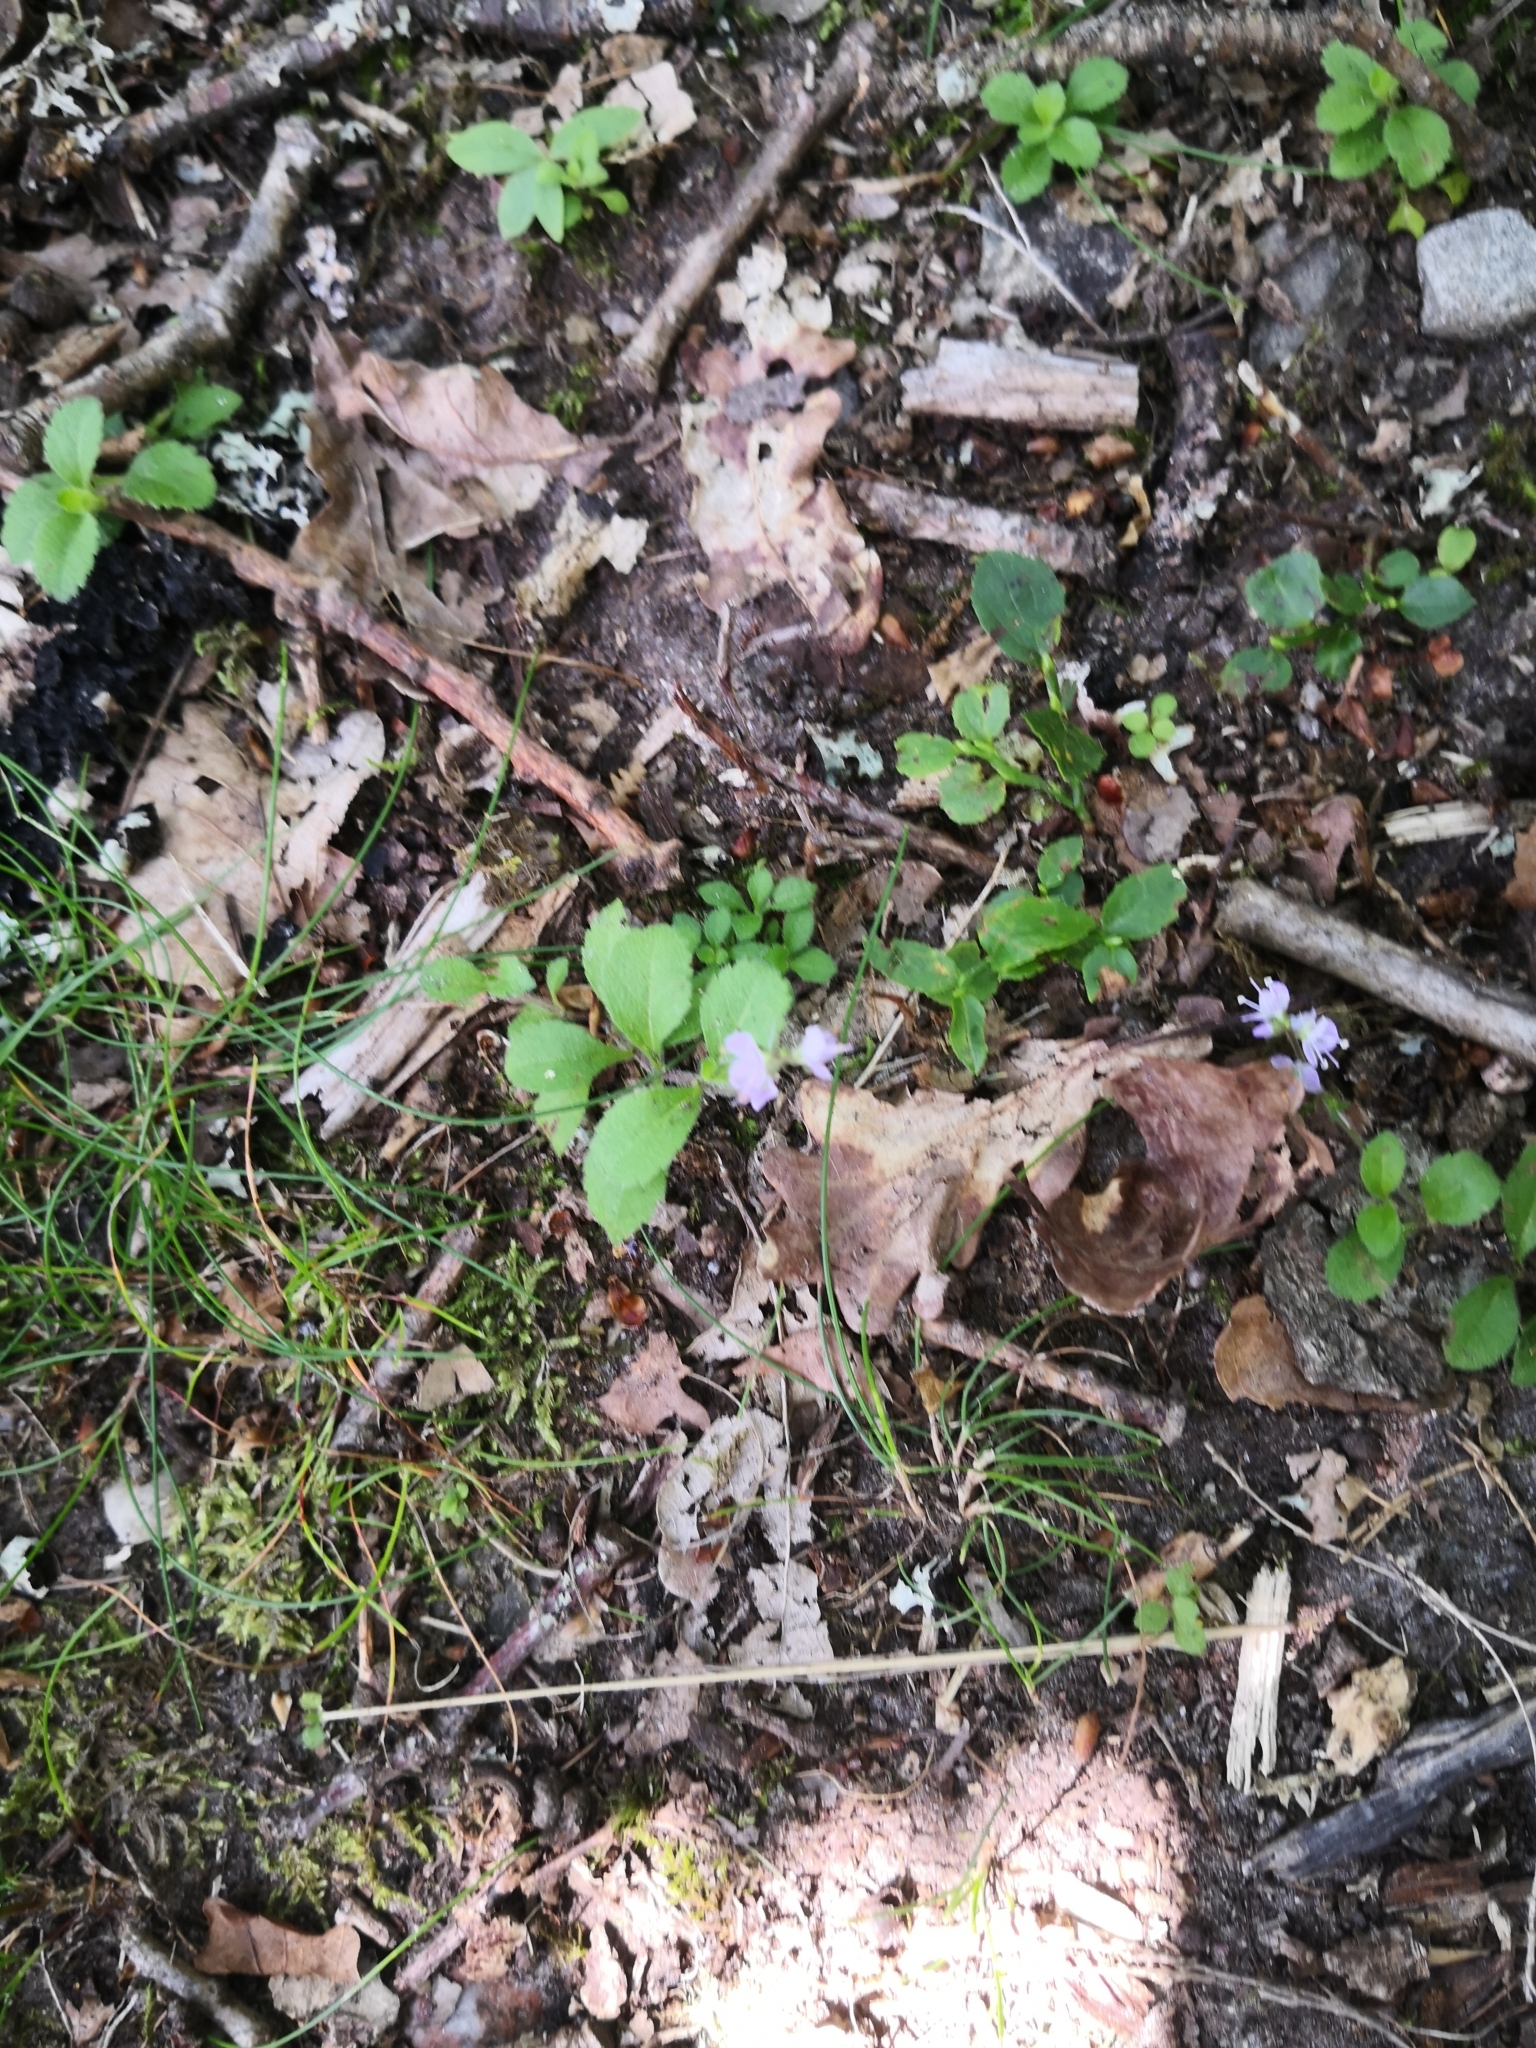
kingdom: Plantae
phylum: Tracheophyta
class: Magnoliopsida
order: Lamiales
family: Plantaginaceae
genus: Veronica
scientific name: Veronica officinalis
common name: Common speedwell
